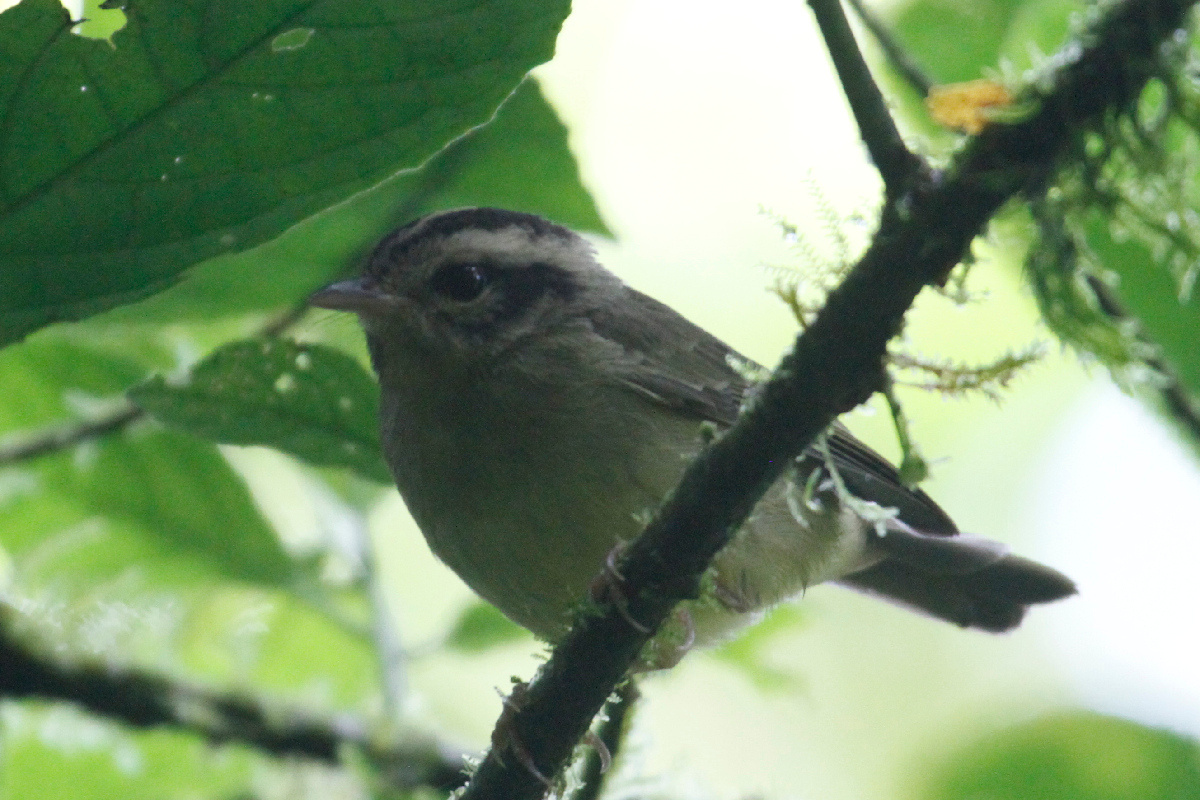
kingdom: Animalia
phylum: Chordata
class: Aves
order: Passeriformes
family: Parulidae
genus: Basileuterus
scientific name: Basileuterus melanotis
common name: Black-eared warbler
